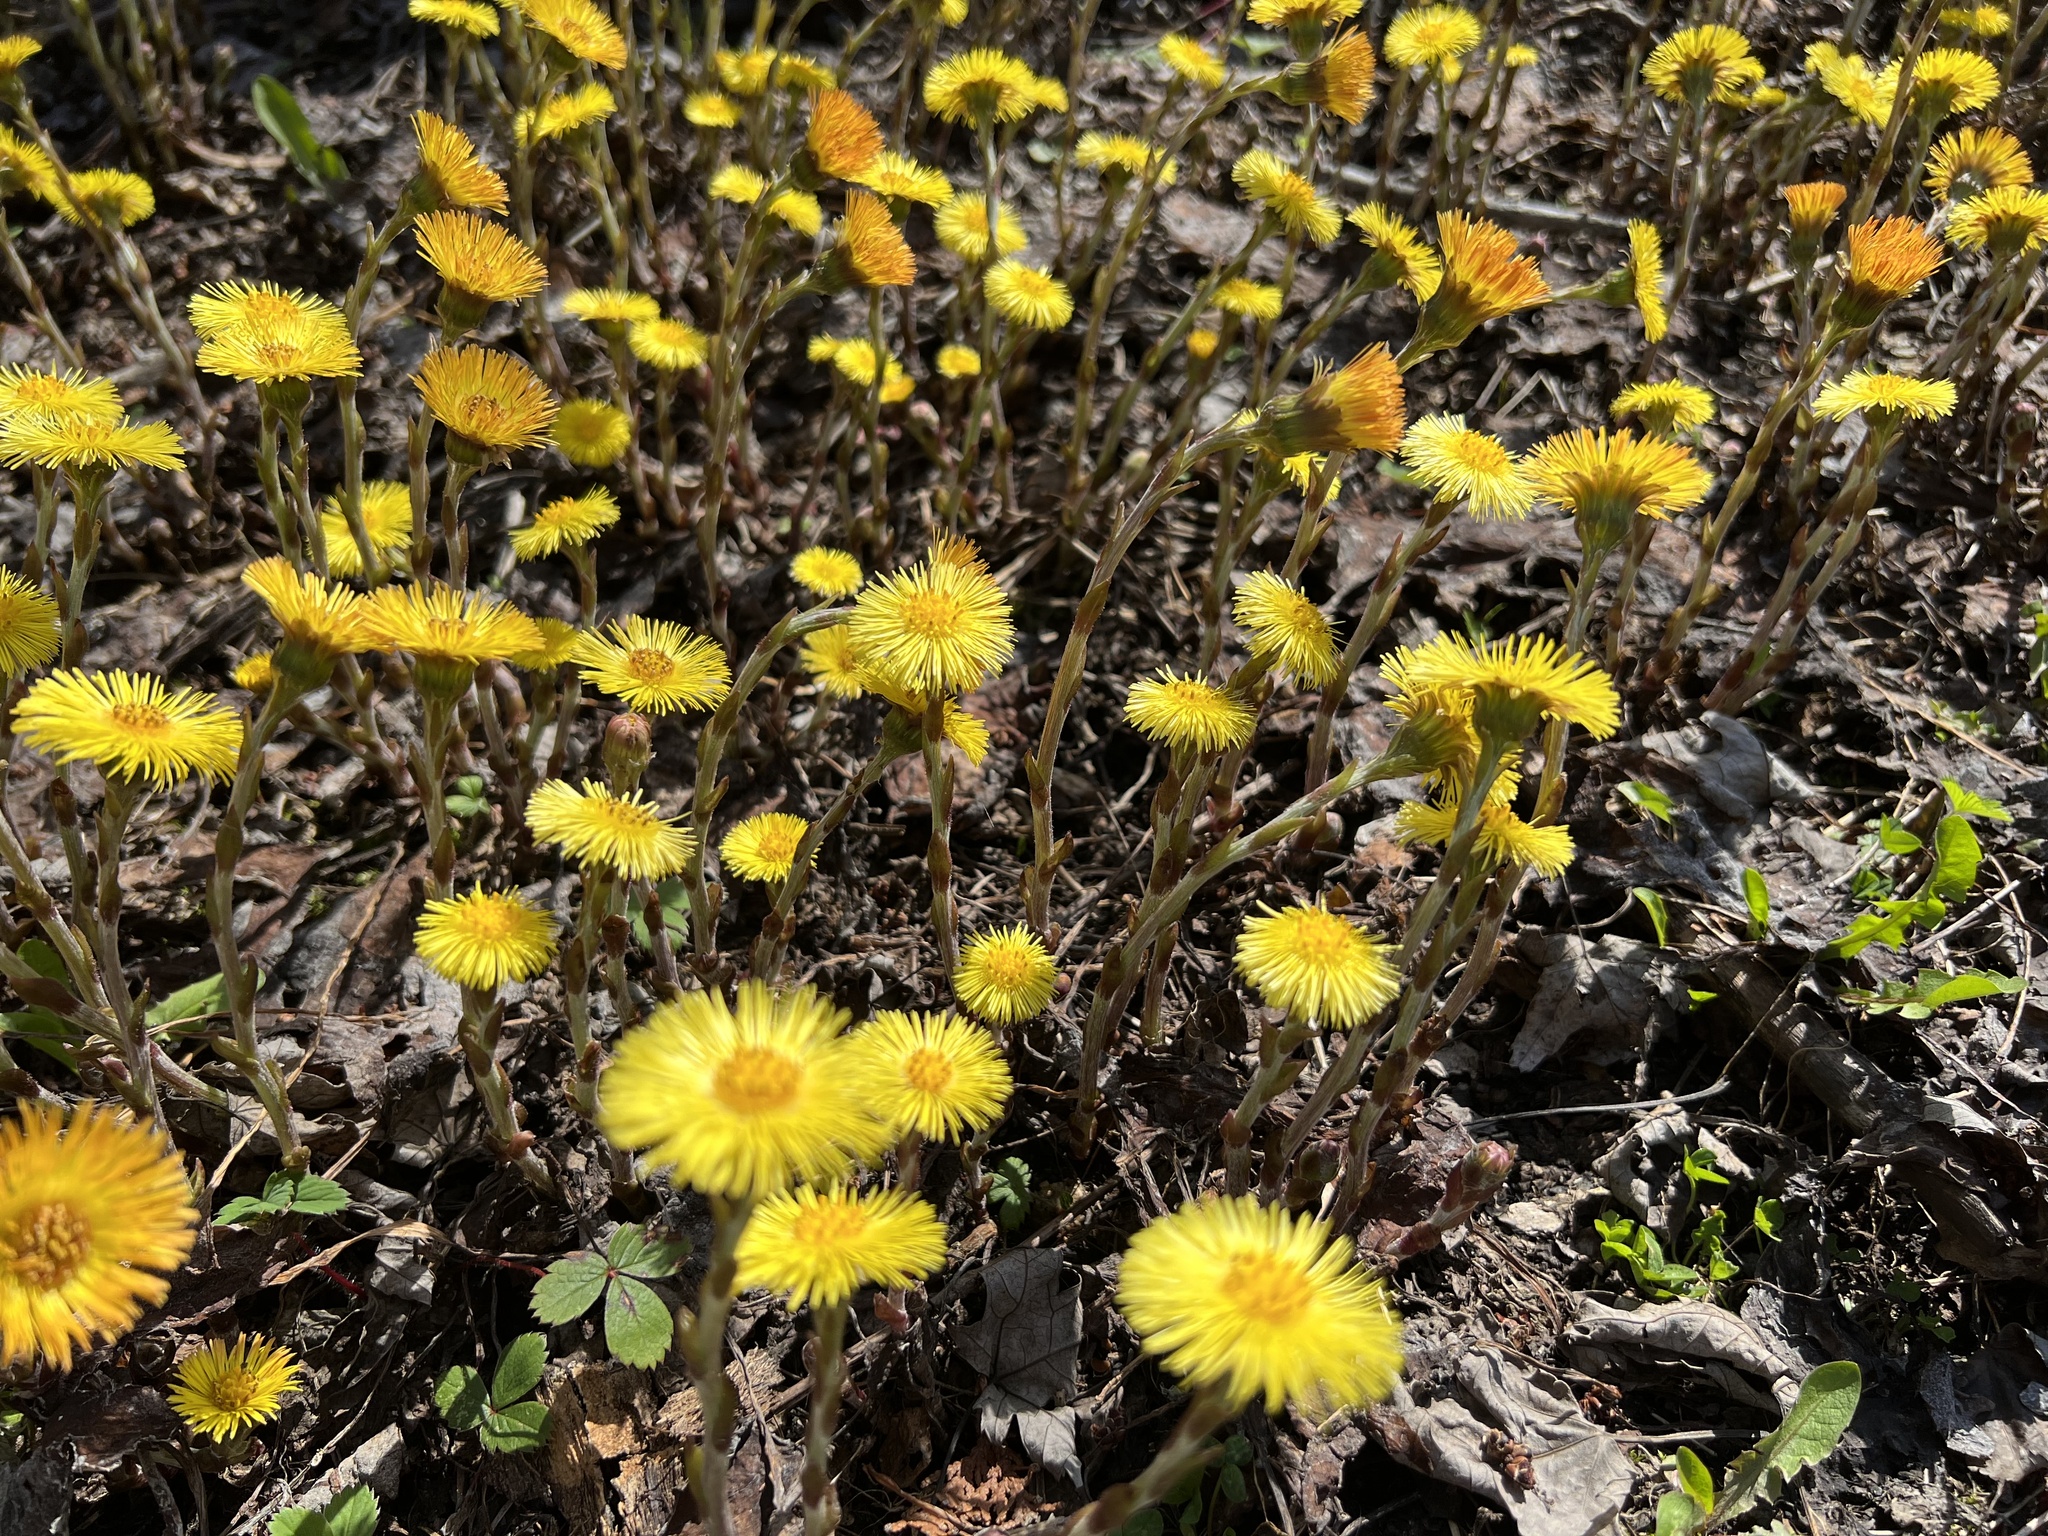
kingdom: Plantae
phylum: Tracheophyta
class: Magnoliopsida
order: Asterales
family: Asteraceae
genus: Tussilago
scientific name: Tussilago farfara
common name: Coltsfoot
